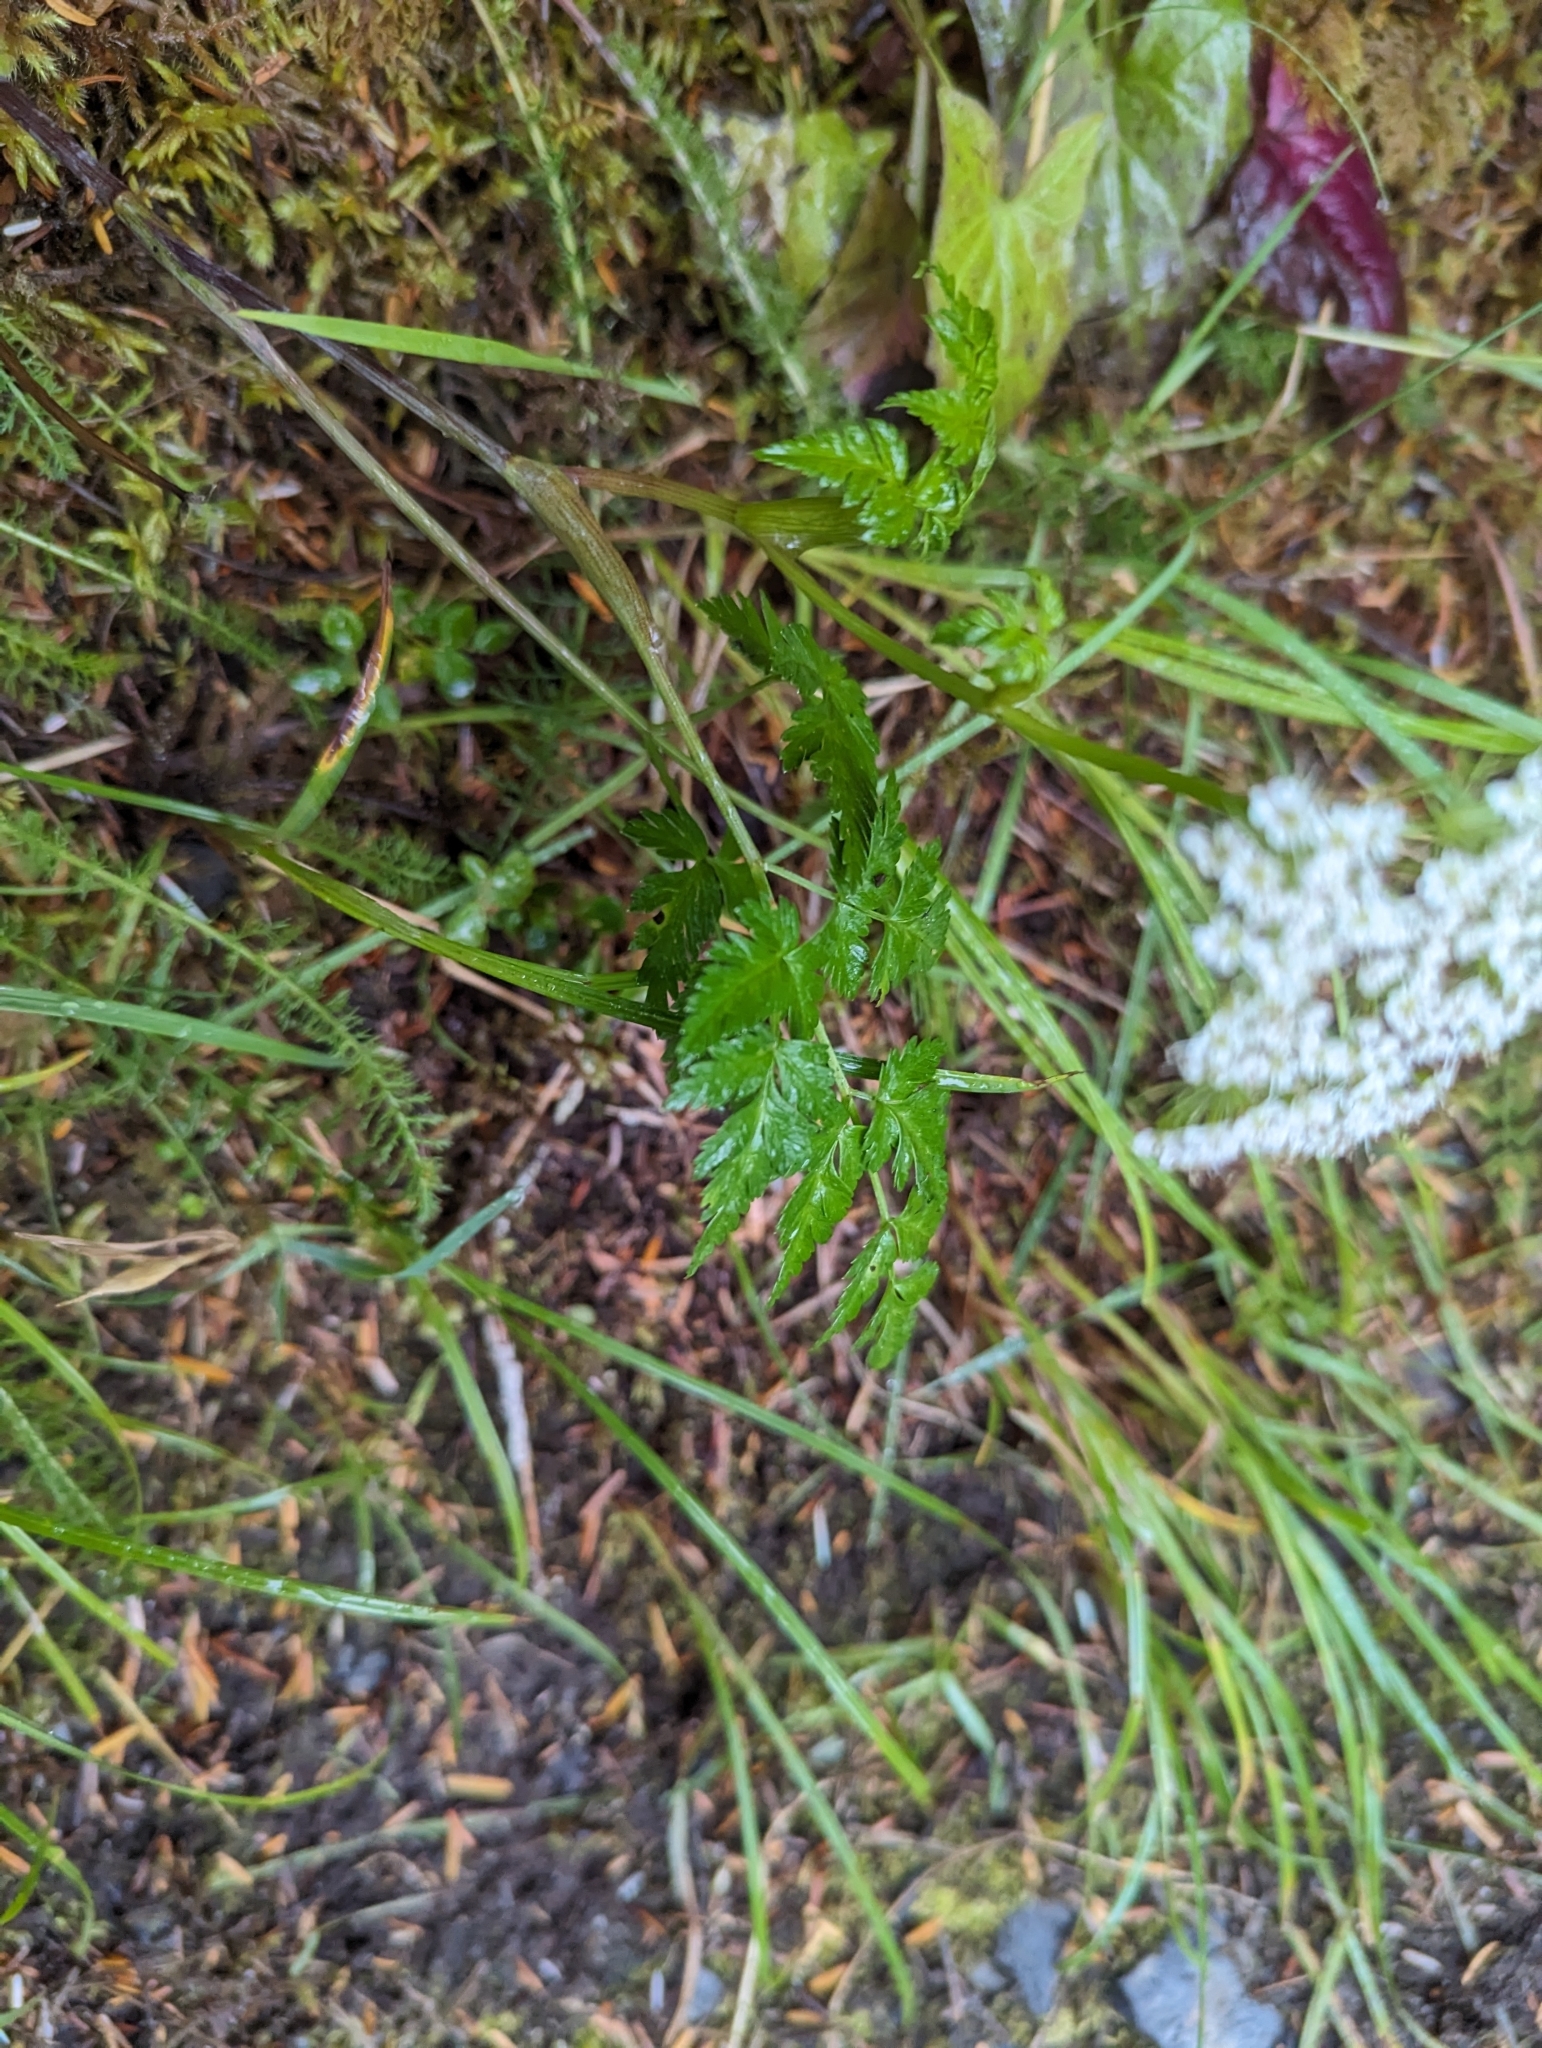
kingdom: Plantae
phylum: Tracheophyta
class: Magnoliopsida
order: Apiales
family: Apiaceae
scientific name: Apiaceae
